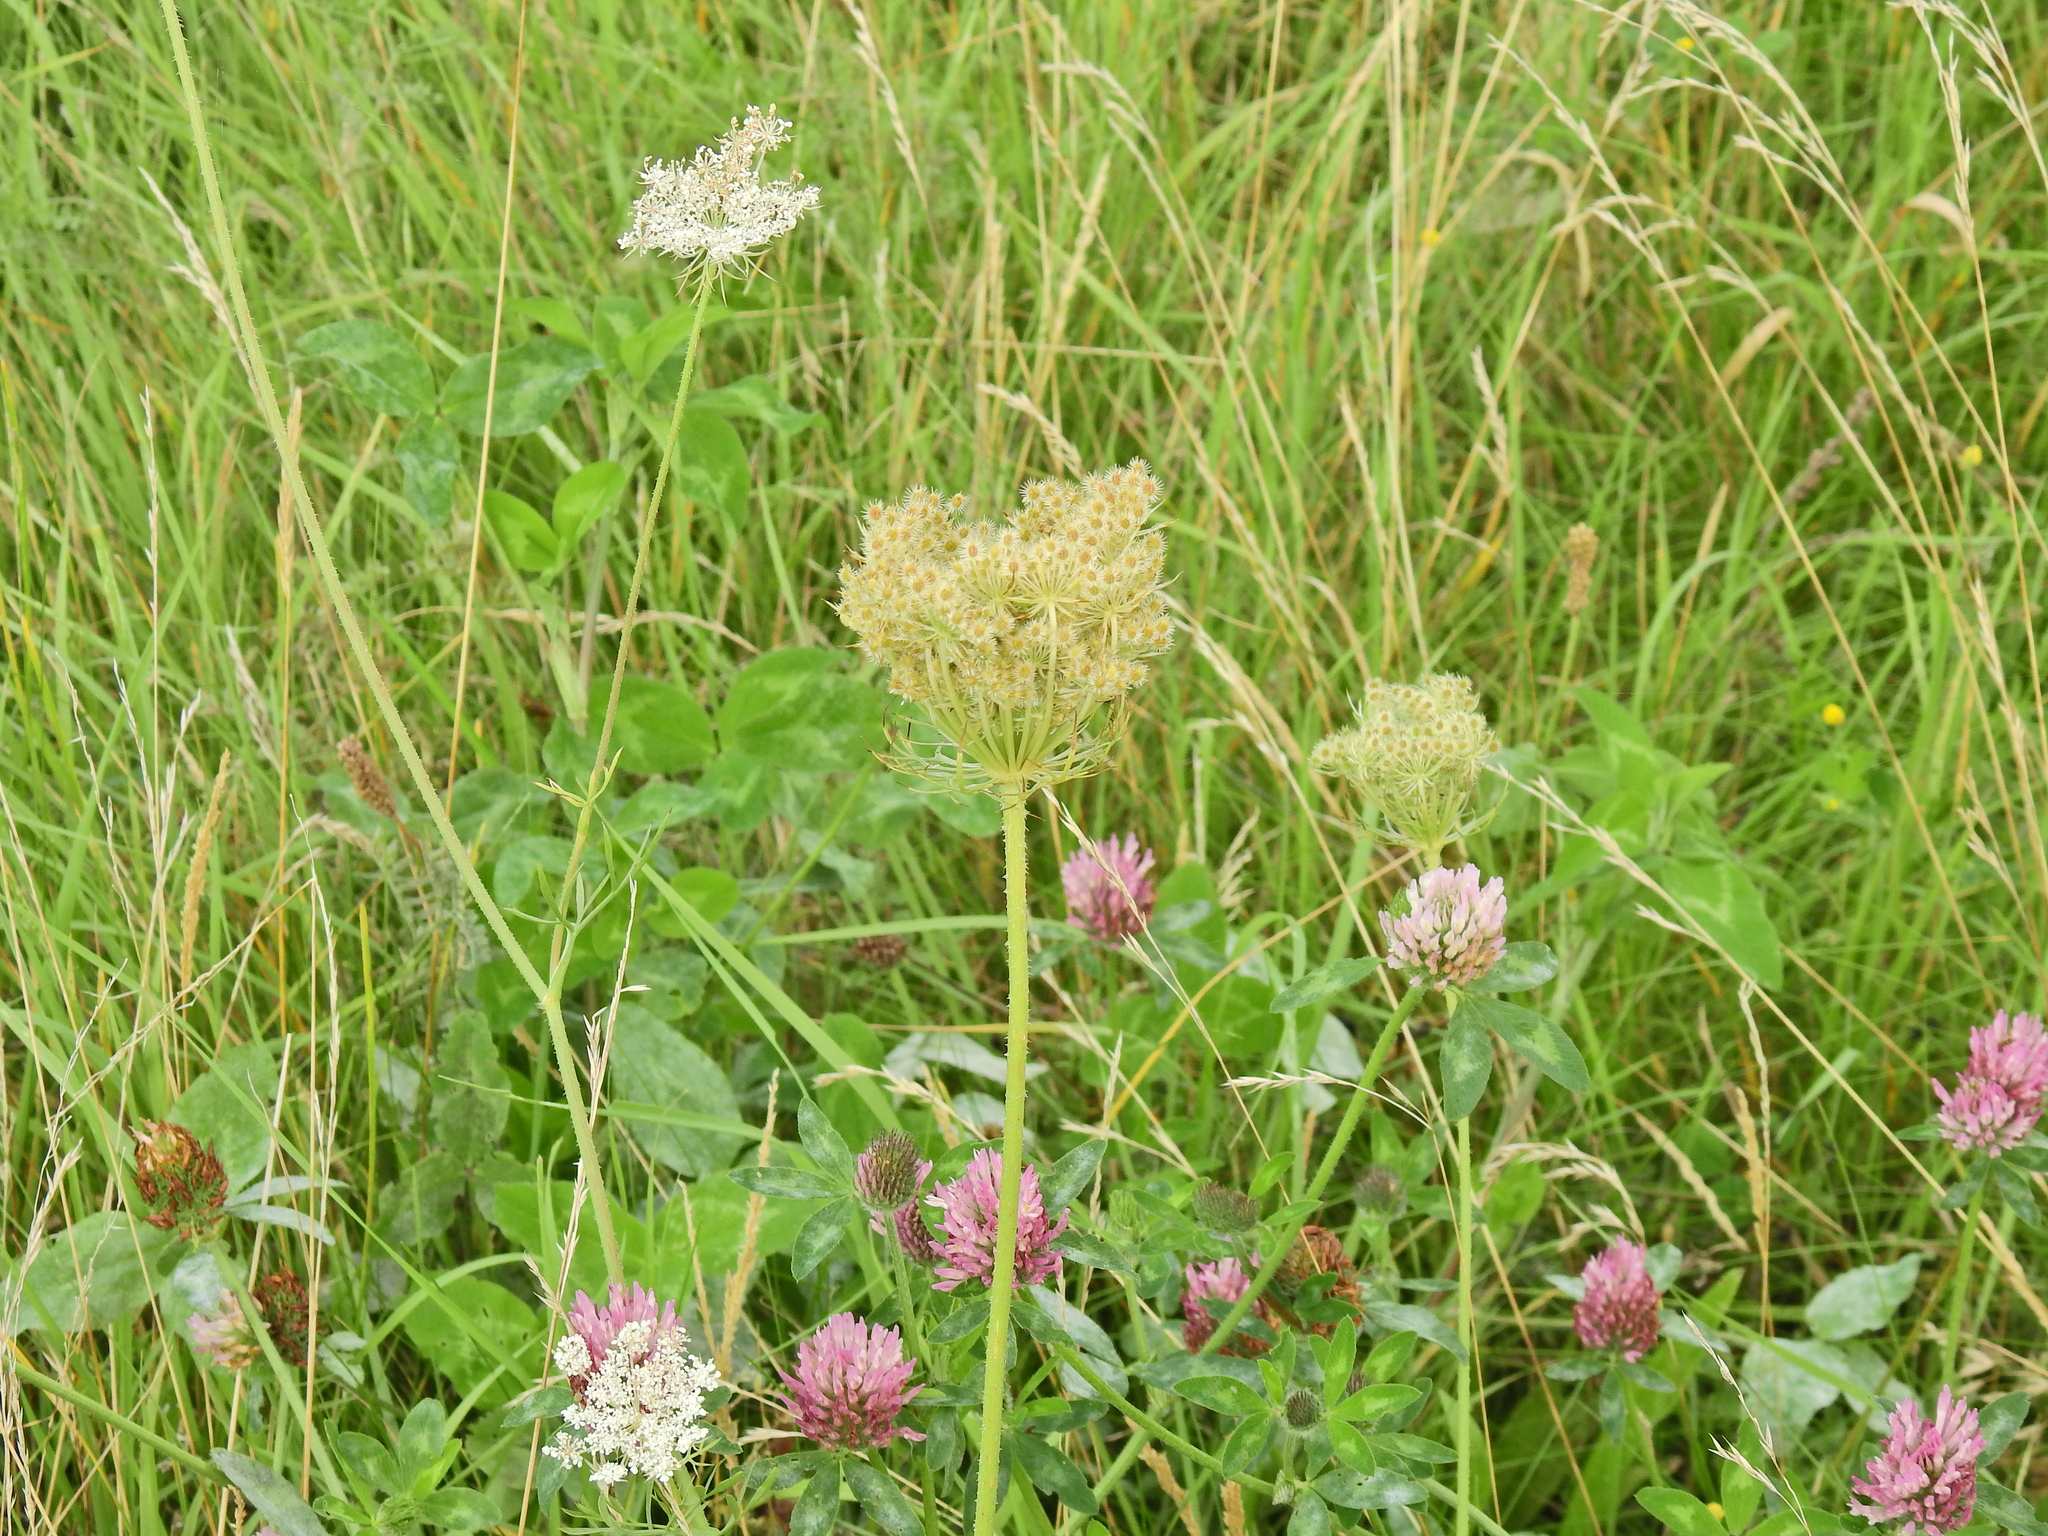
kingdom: Plantae
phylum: Tracheophyta
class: Magnoliopsida
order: Apiales
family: Apiaceae
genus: Daucus
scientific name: Daucus carota
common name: Wild carrot
